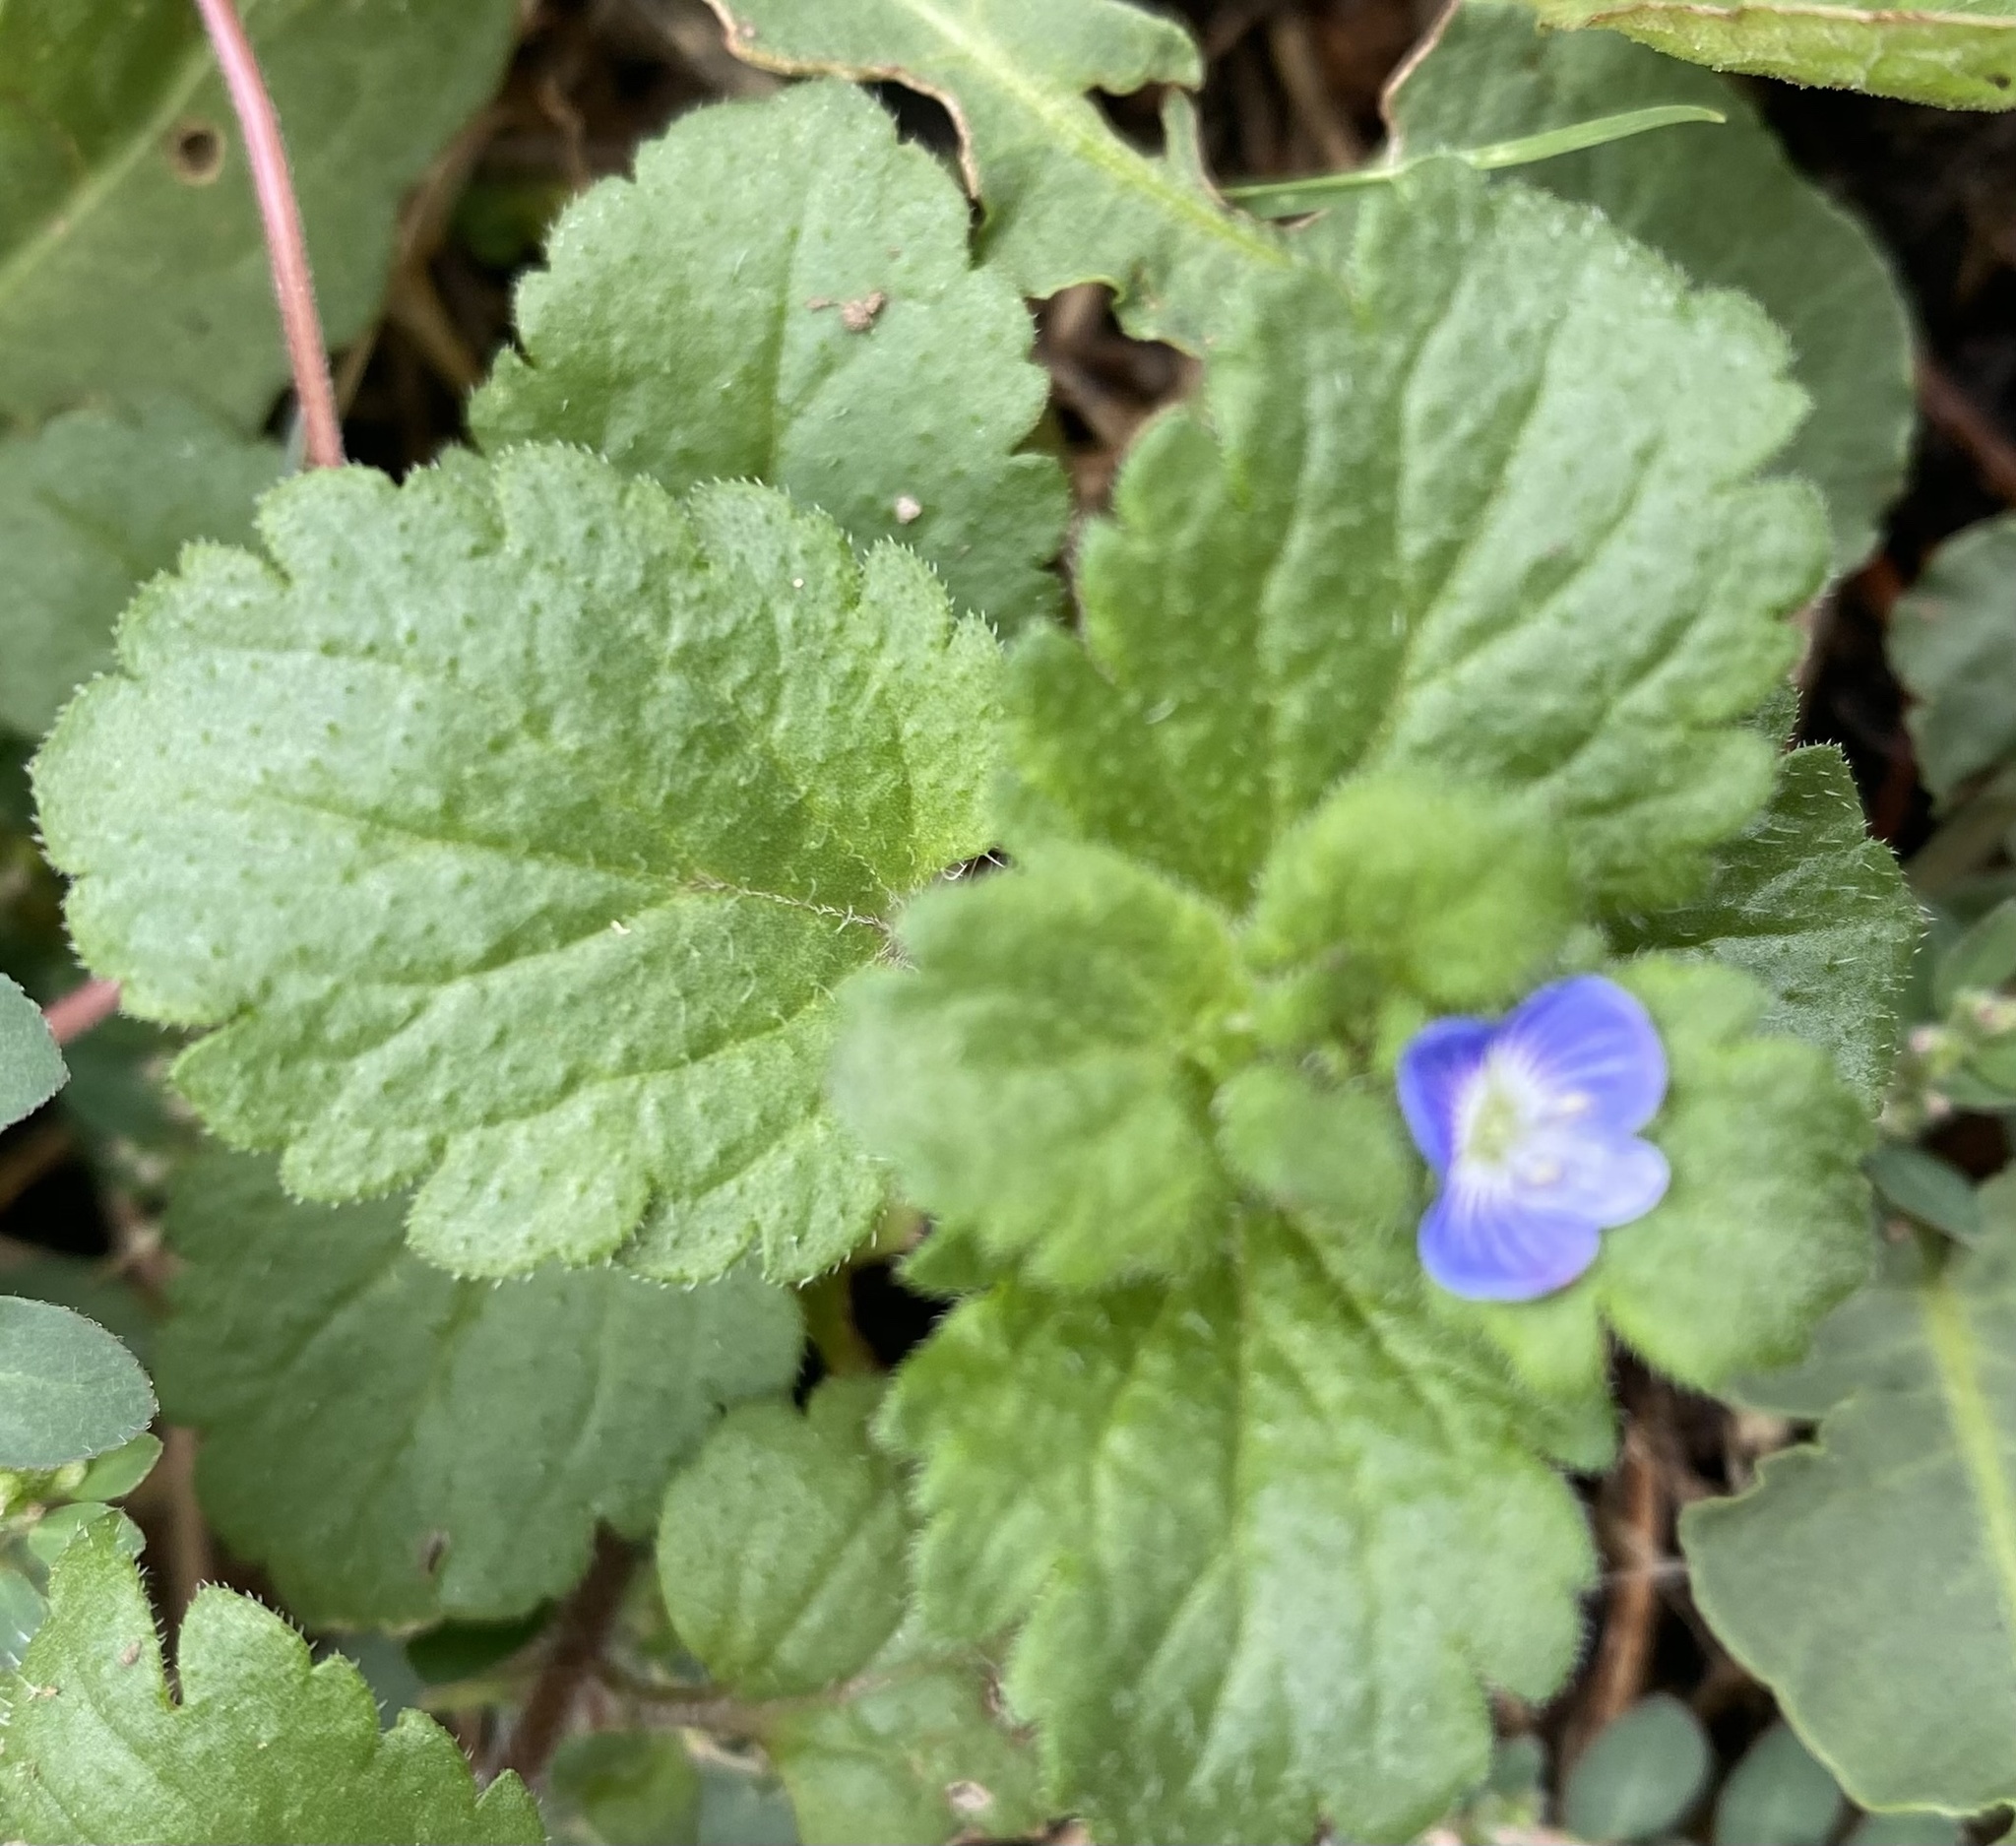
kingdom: Plantae
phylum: Tracheophyta
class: Magnoliopsida
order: Lamiales
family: Plantaginaceae
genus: Veronica
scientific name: Veronica persica
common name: Common field-speedwell
